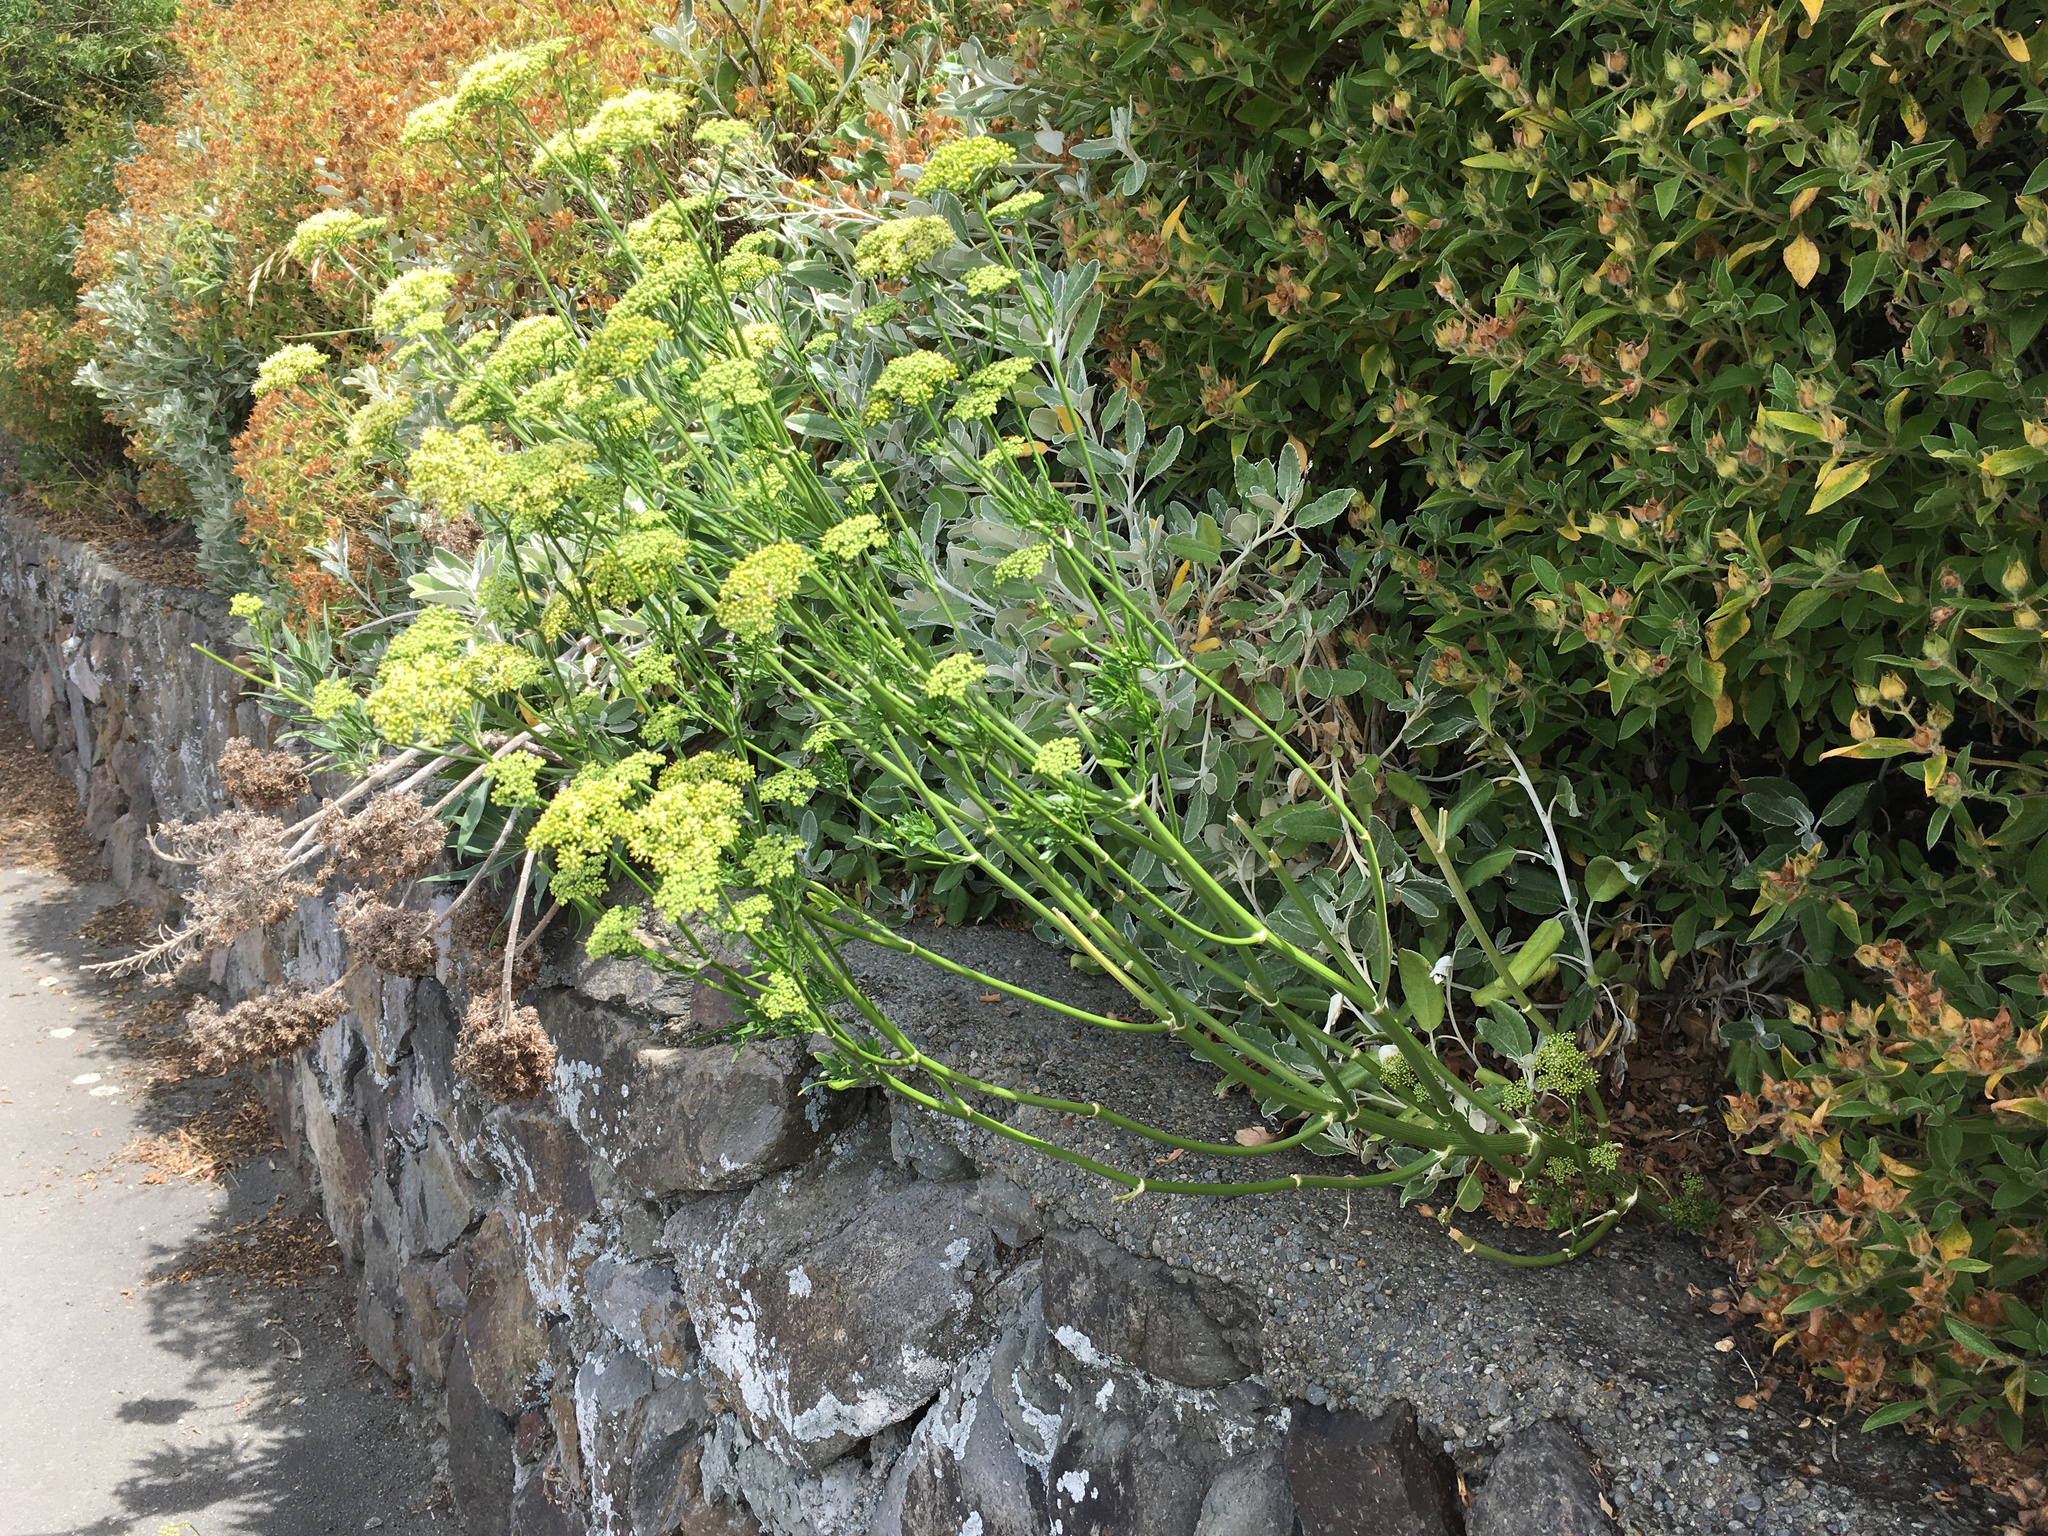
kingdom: Plantae
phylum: Tracheophyta
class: Magnoliopsida
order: Apiales
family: Apiaceae
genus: Petroselinum
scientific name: Petroselinum crispum
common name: Parsley
